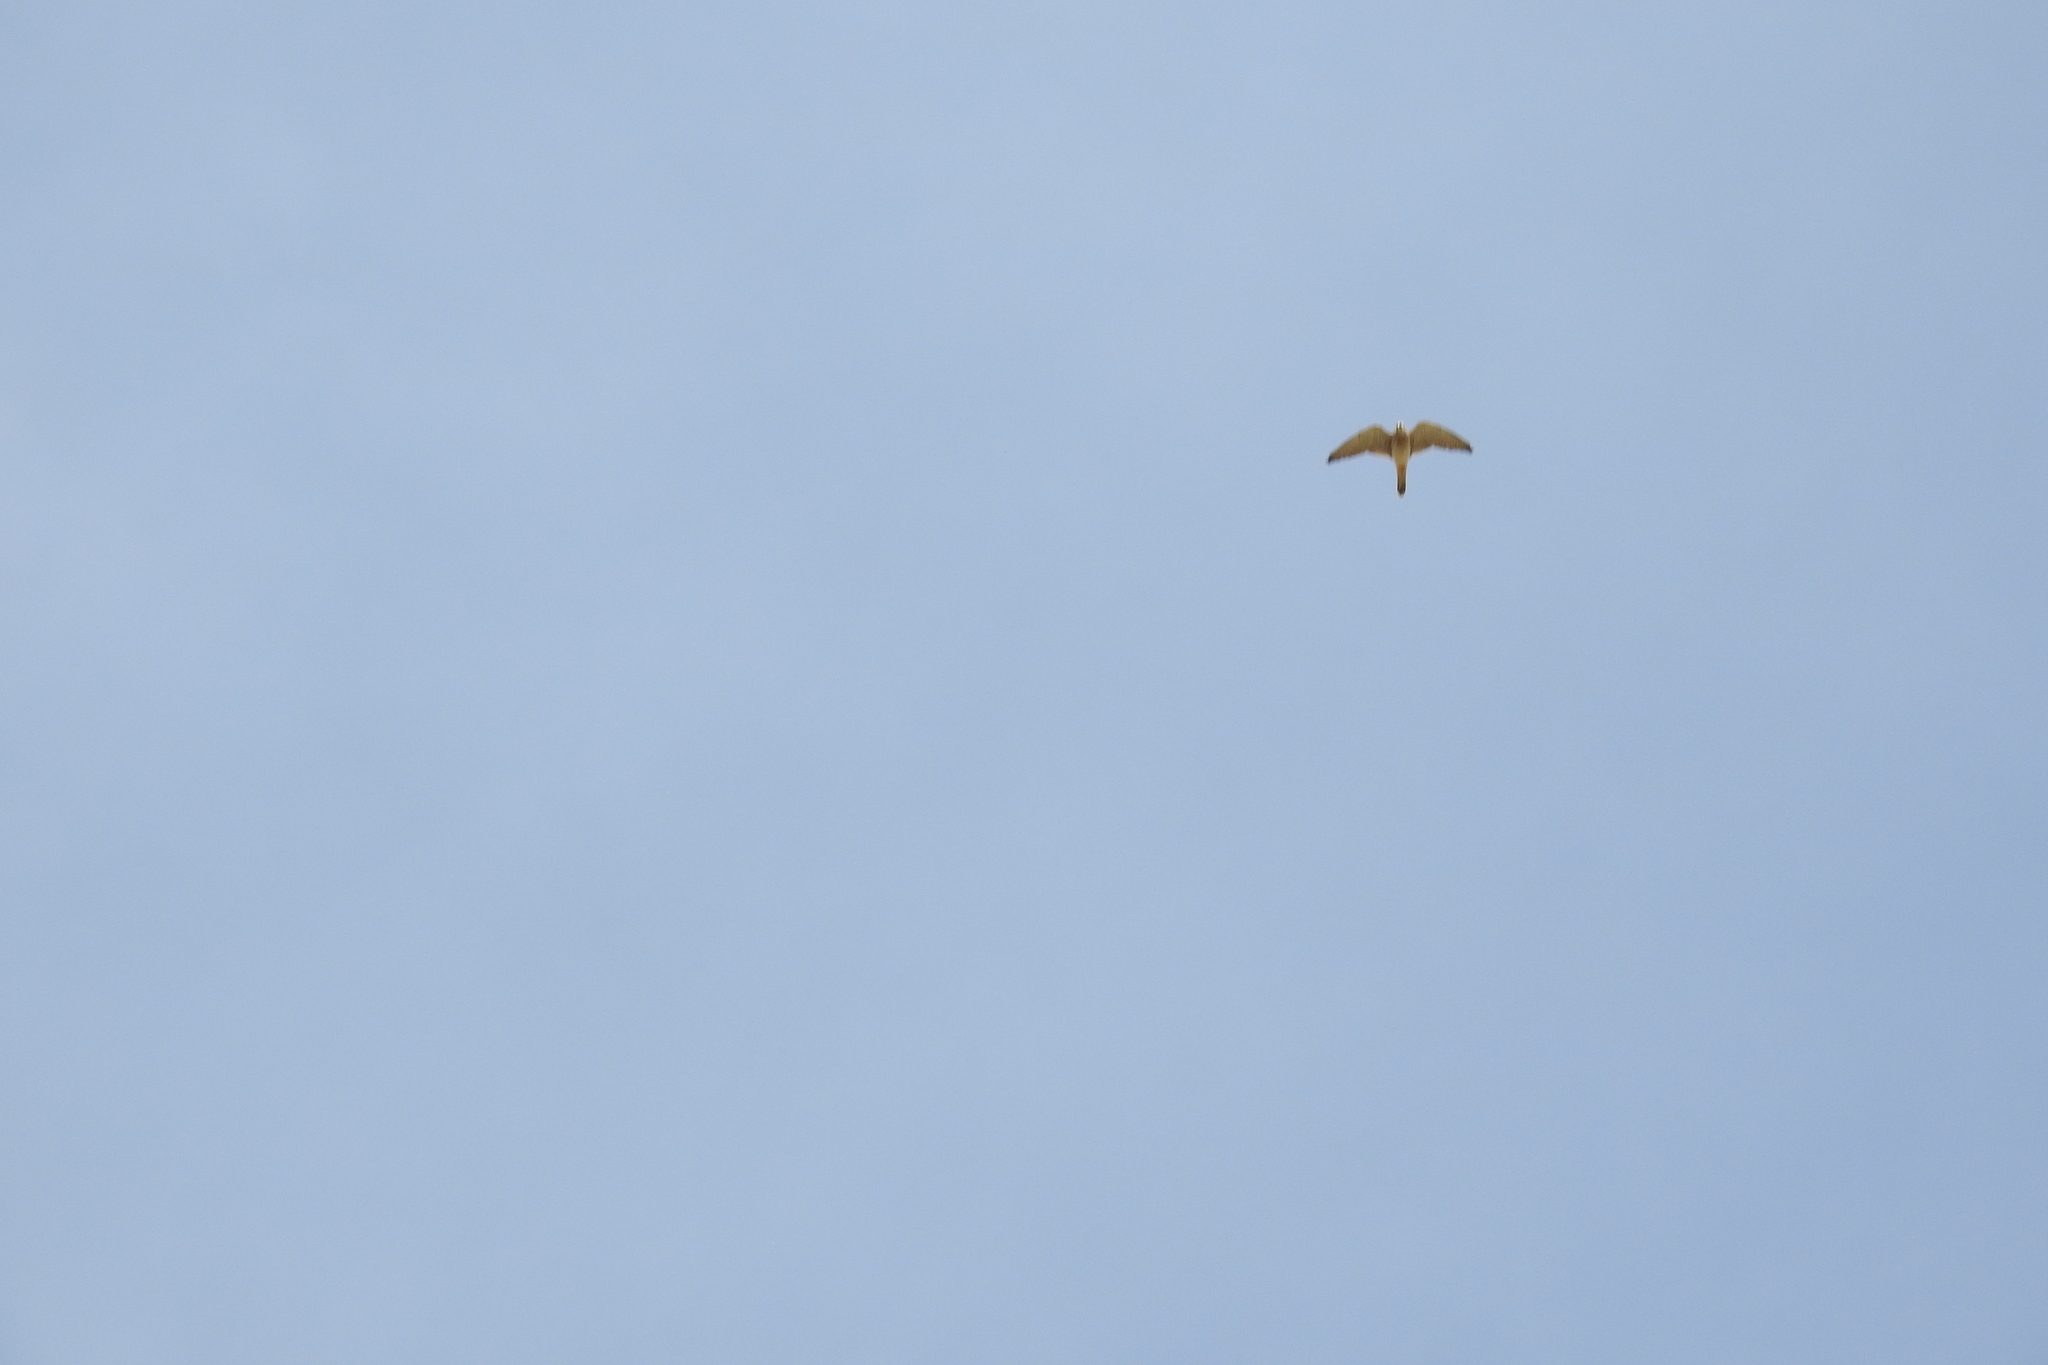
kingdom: Animalia
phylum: Chordata
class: Aves
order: Falconiformes
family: Falconidae
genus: Falco
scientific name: Falco tinnunculus
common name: Common kestrel
